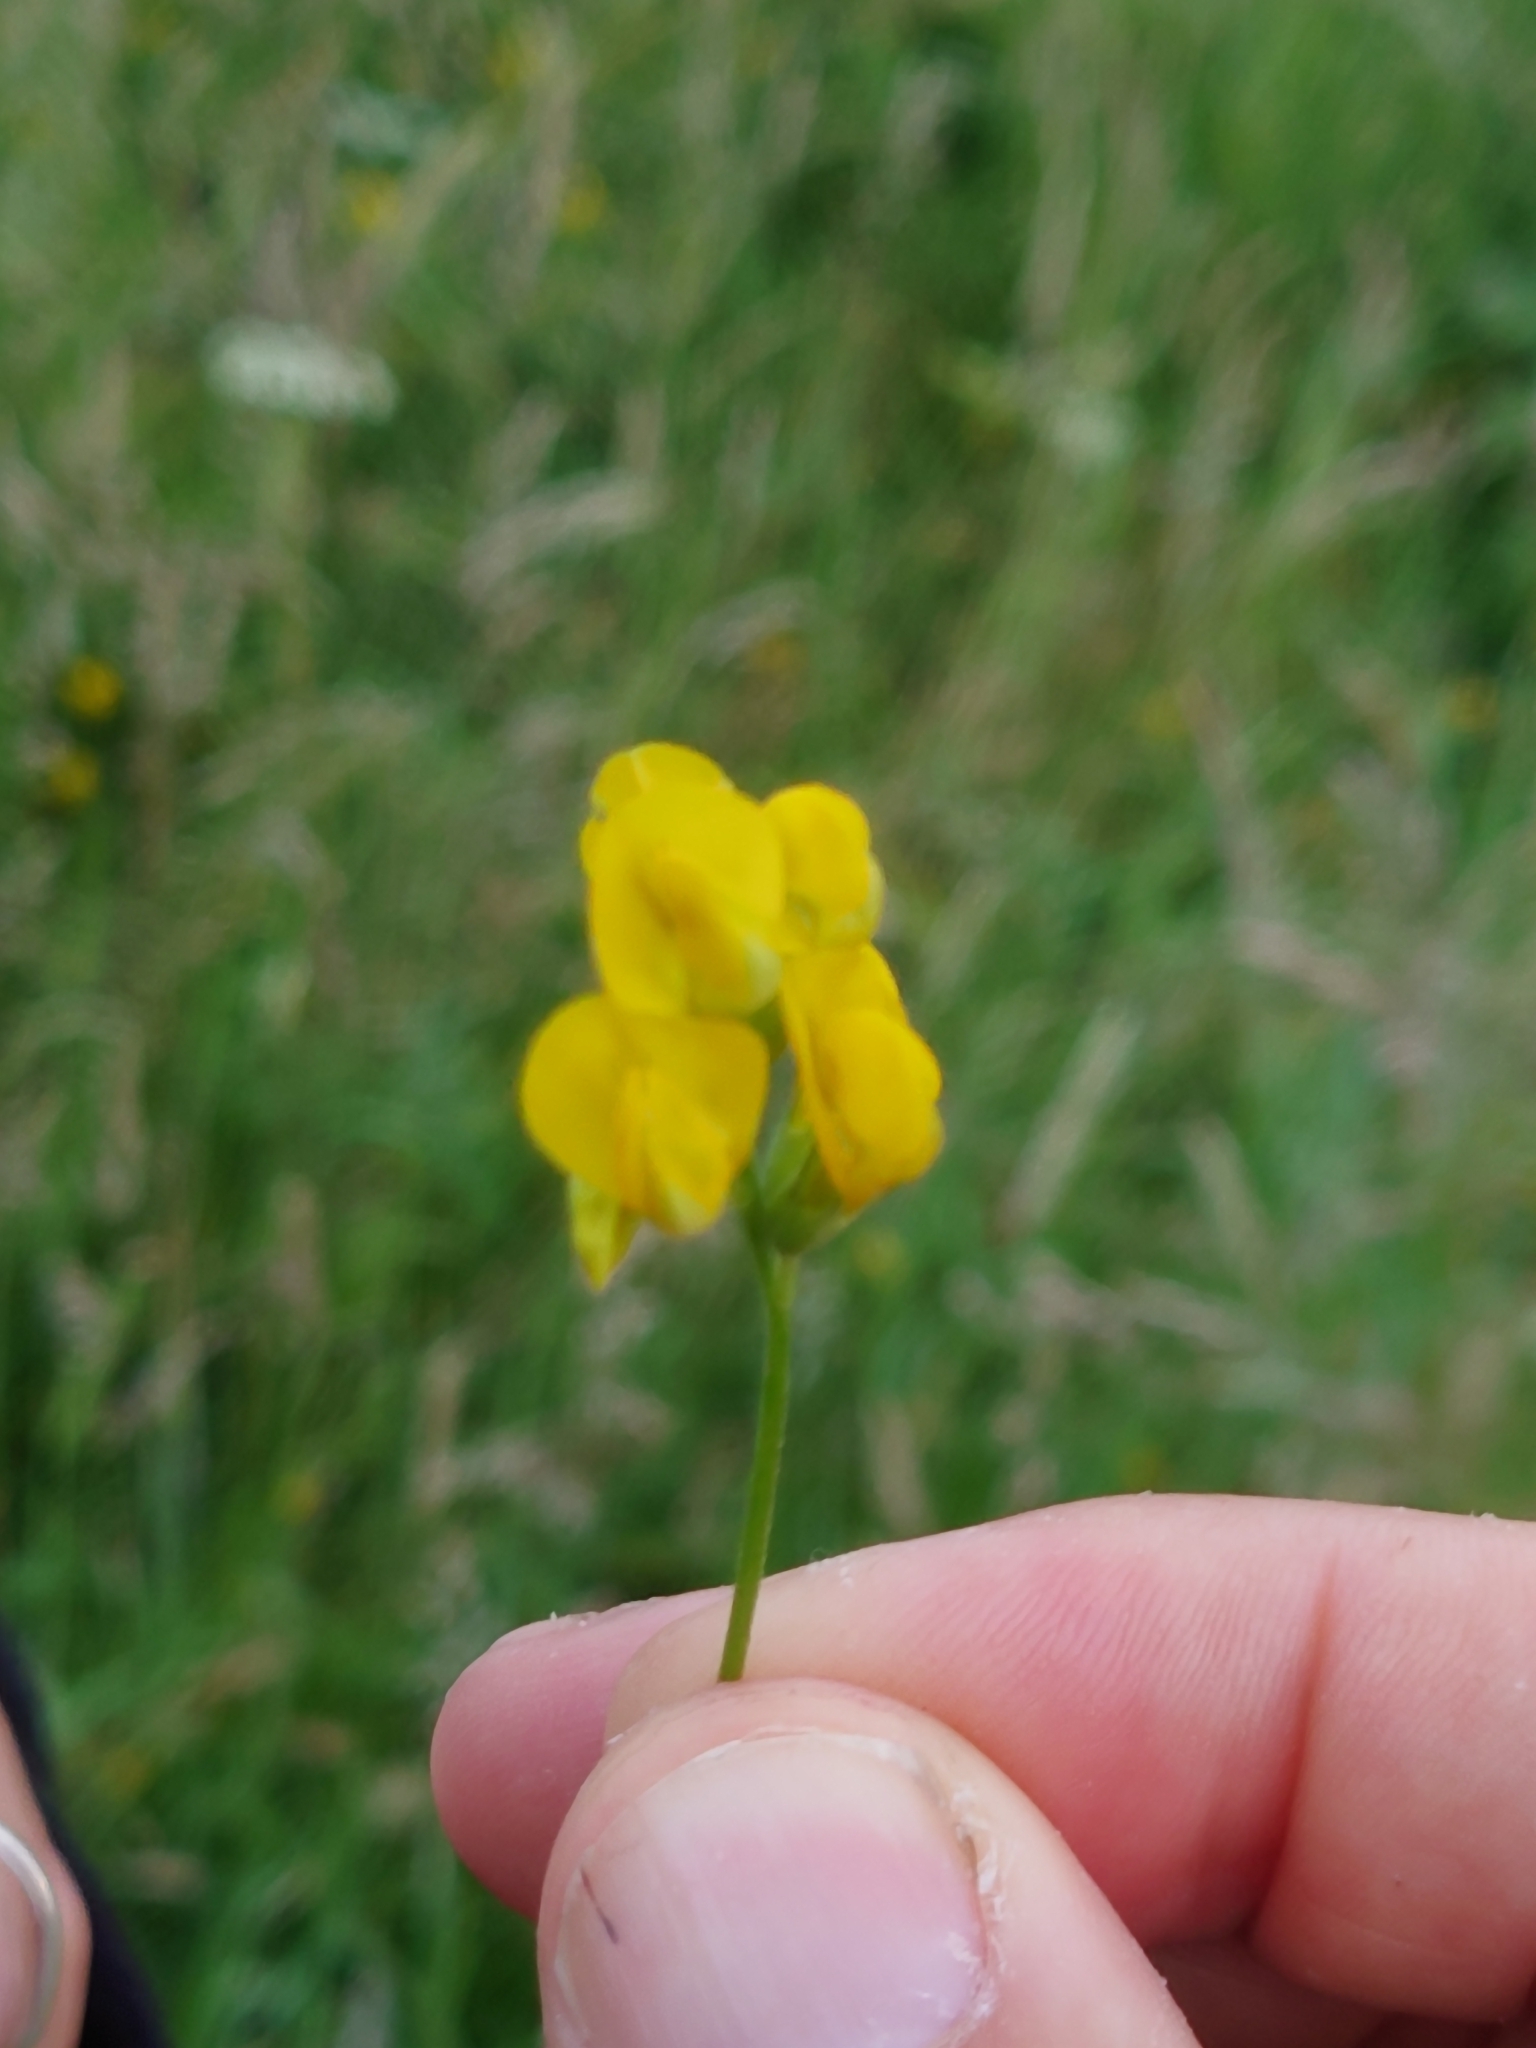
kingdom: Plantae
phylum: Tracheophyta
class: Magnoliopsida
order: Fabales
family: Fabaceae
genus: Lathyrus
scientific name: Lathyrus pratensis
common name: Meadow vetchling
